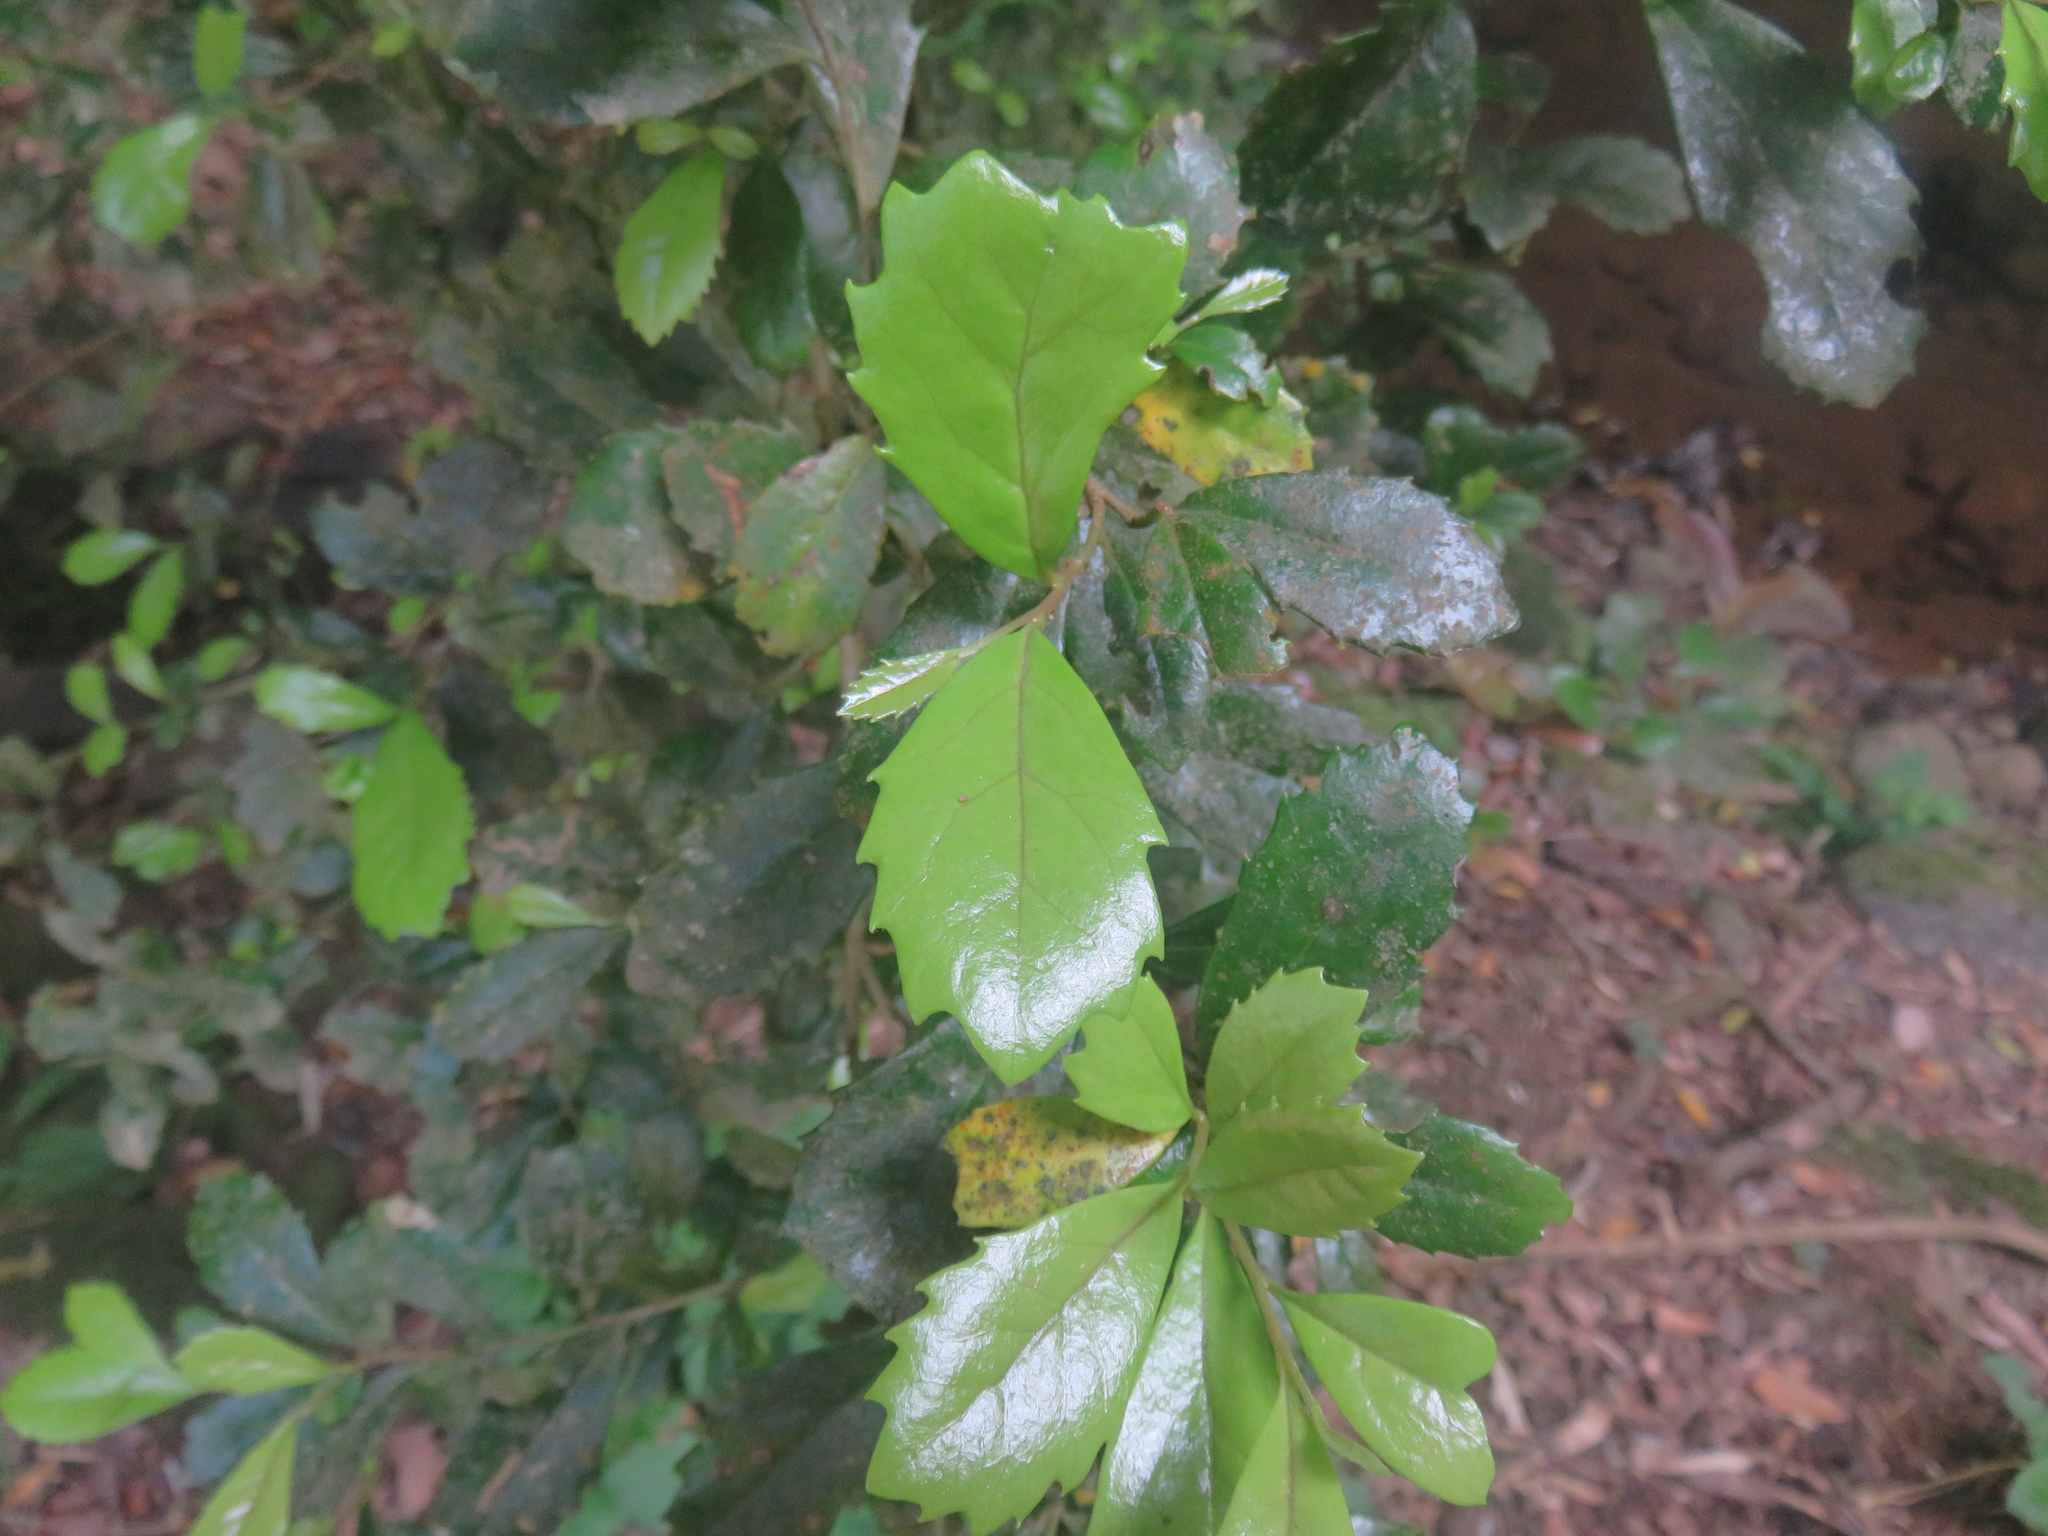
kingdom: Plantae
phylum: Tracheophyta
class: Magnoliopsida
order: Proteales
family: Proteaceae
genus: Lomatia
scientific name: Lomatia dentata
